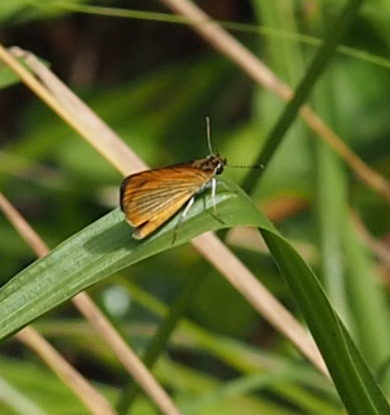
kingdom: Animalia
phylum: Arthropoda
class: Insecta
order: Lepidoptera
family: Hesperiidae
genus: Ancyloxypha
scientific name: Ancyloxypha numitor
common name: Least skipper
